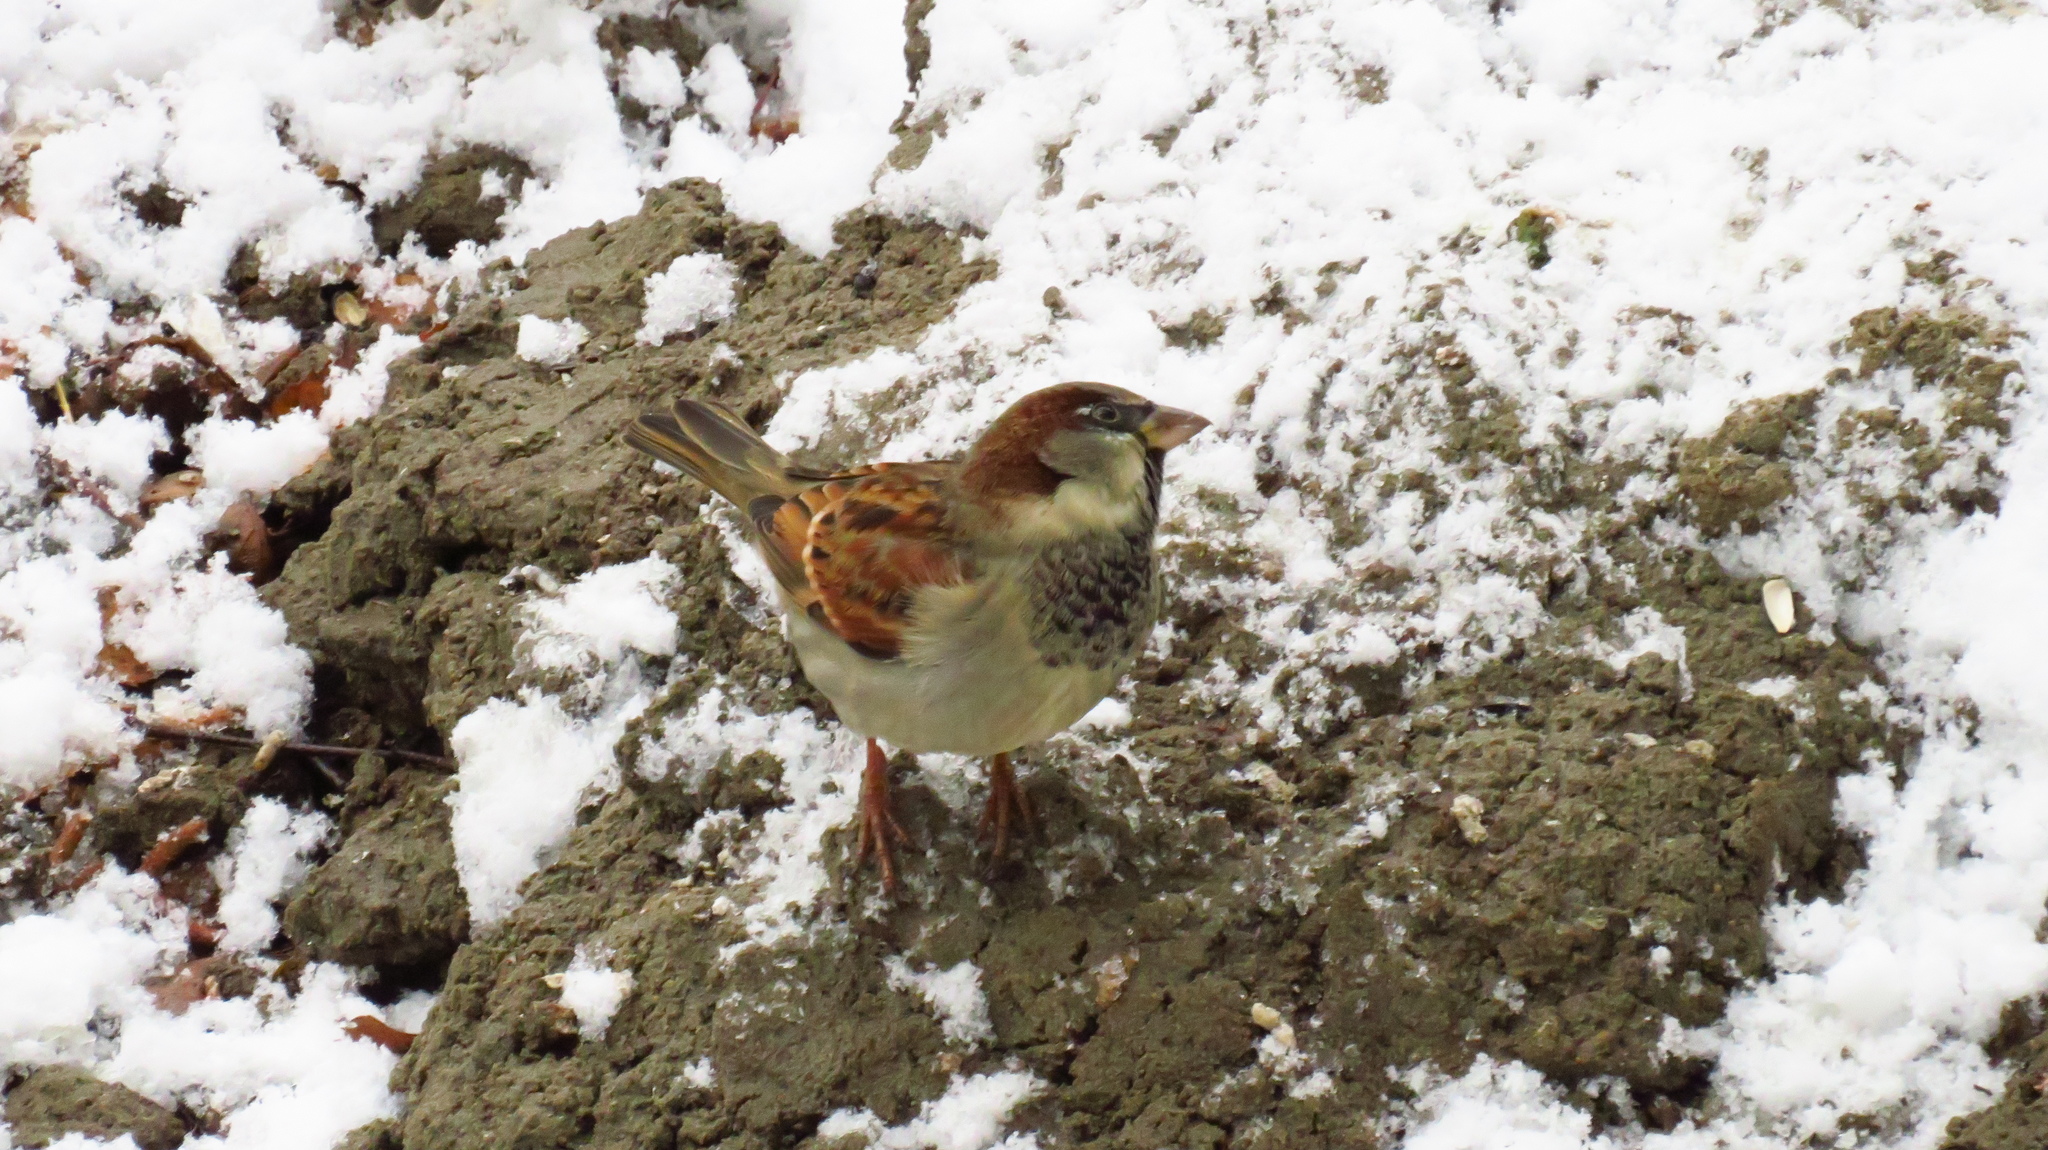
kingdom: Animalia
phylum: Chordata
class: Aves
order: Passeriformes
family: Passeridae
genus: Passer
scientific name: Passer domesticus
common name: House sparrow
